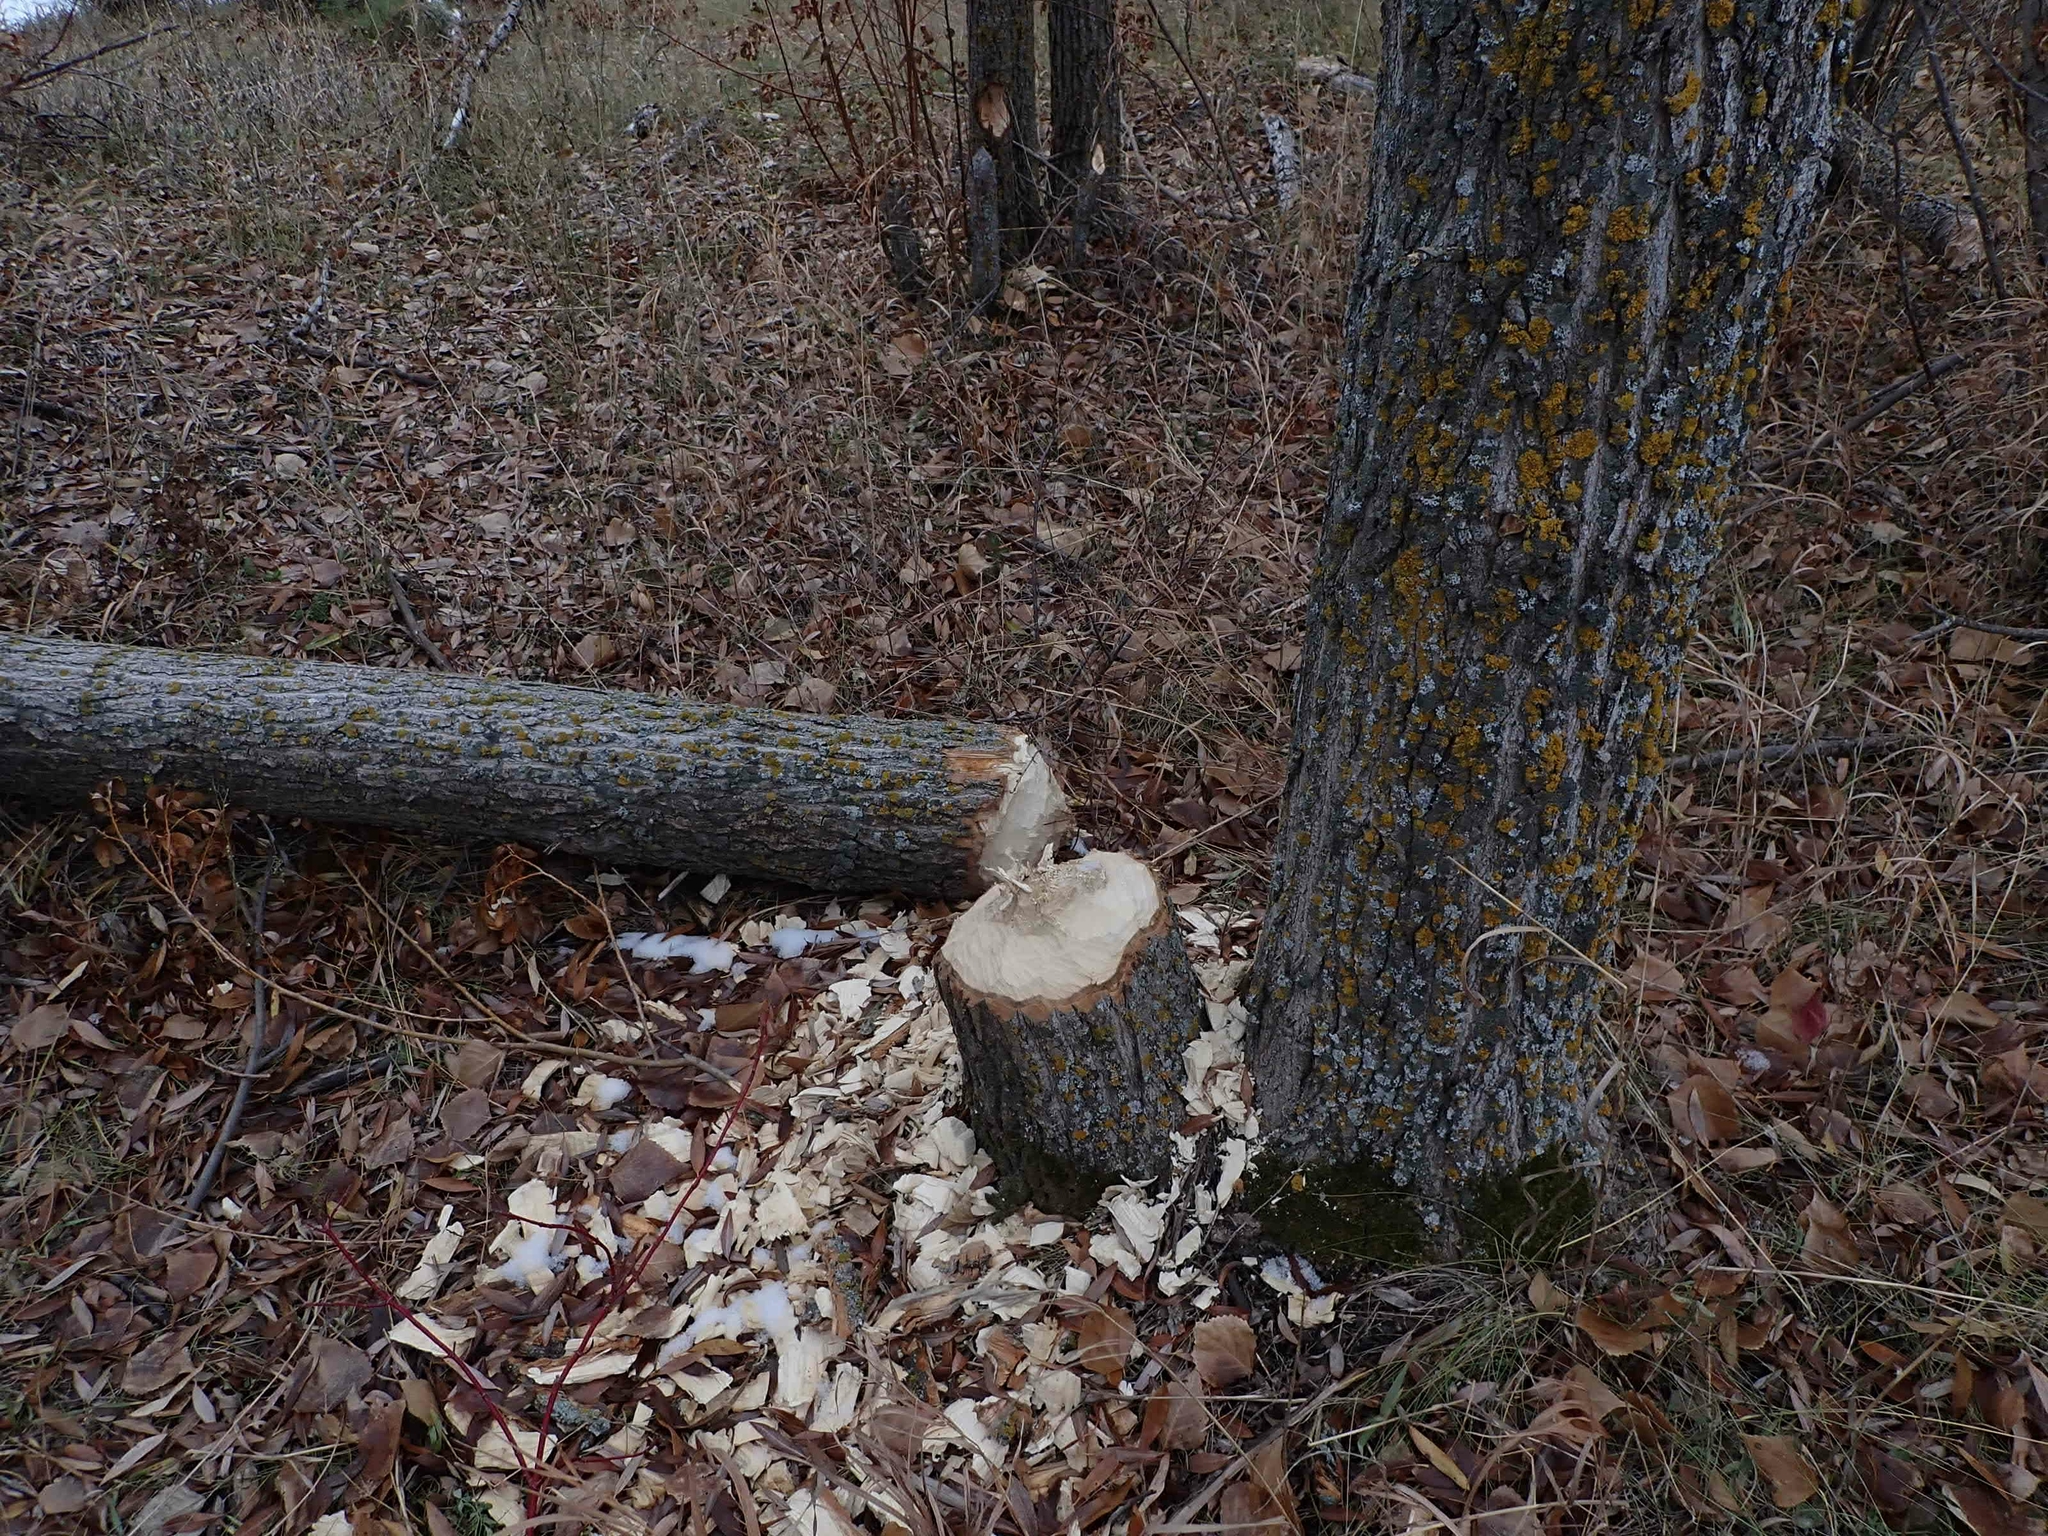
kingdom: Animalia
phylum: Chordata
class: Mammalia
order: Rodentia
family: Castoridae
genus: Castor
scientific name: Castor canadensis
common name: American beaver
